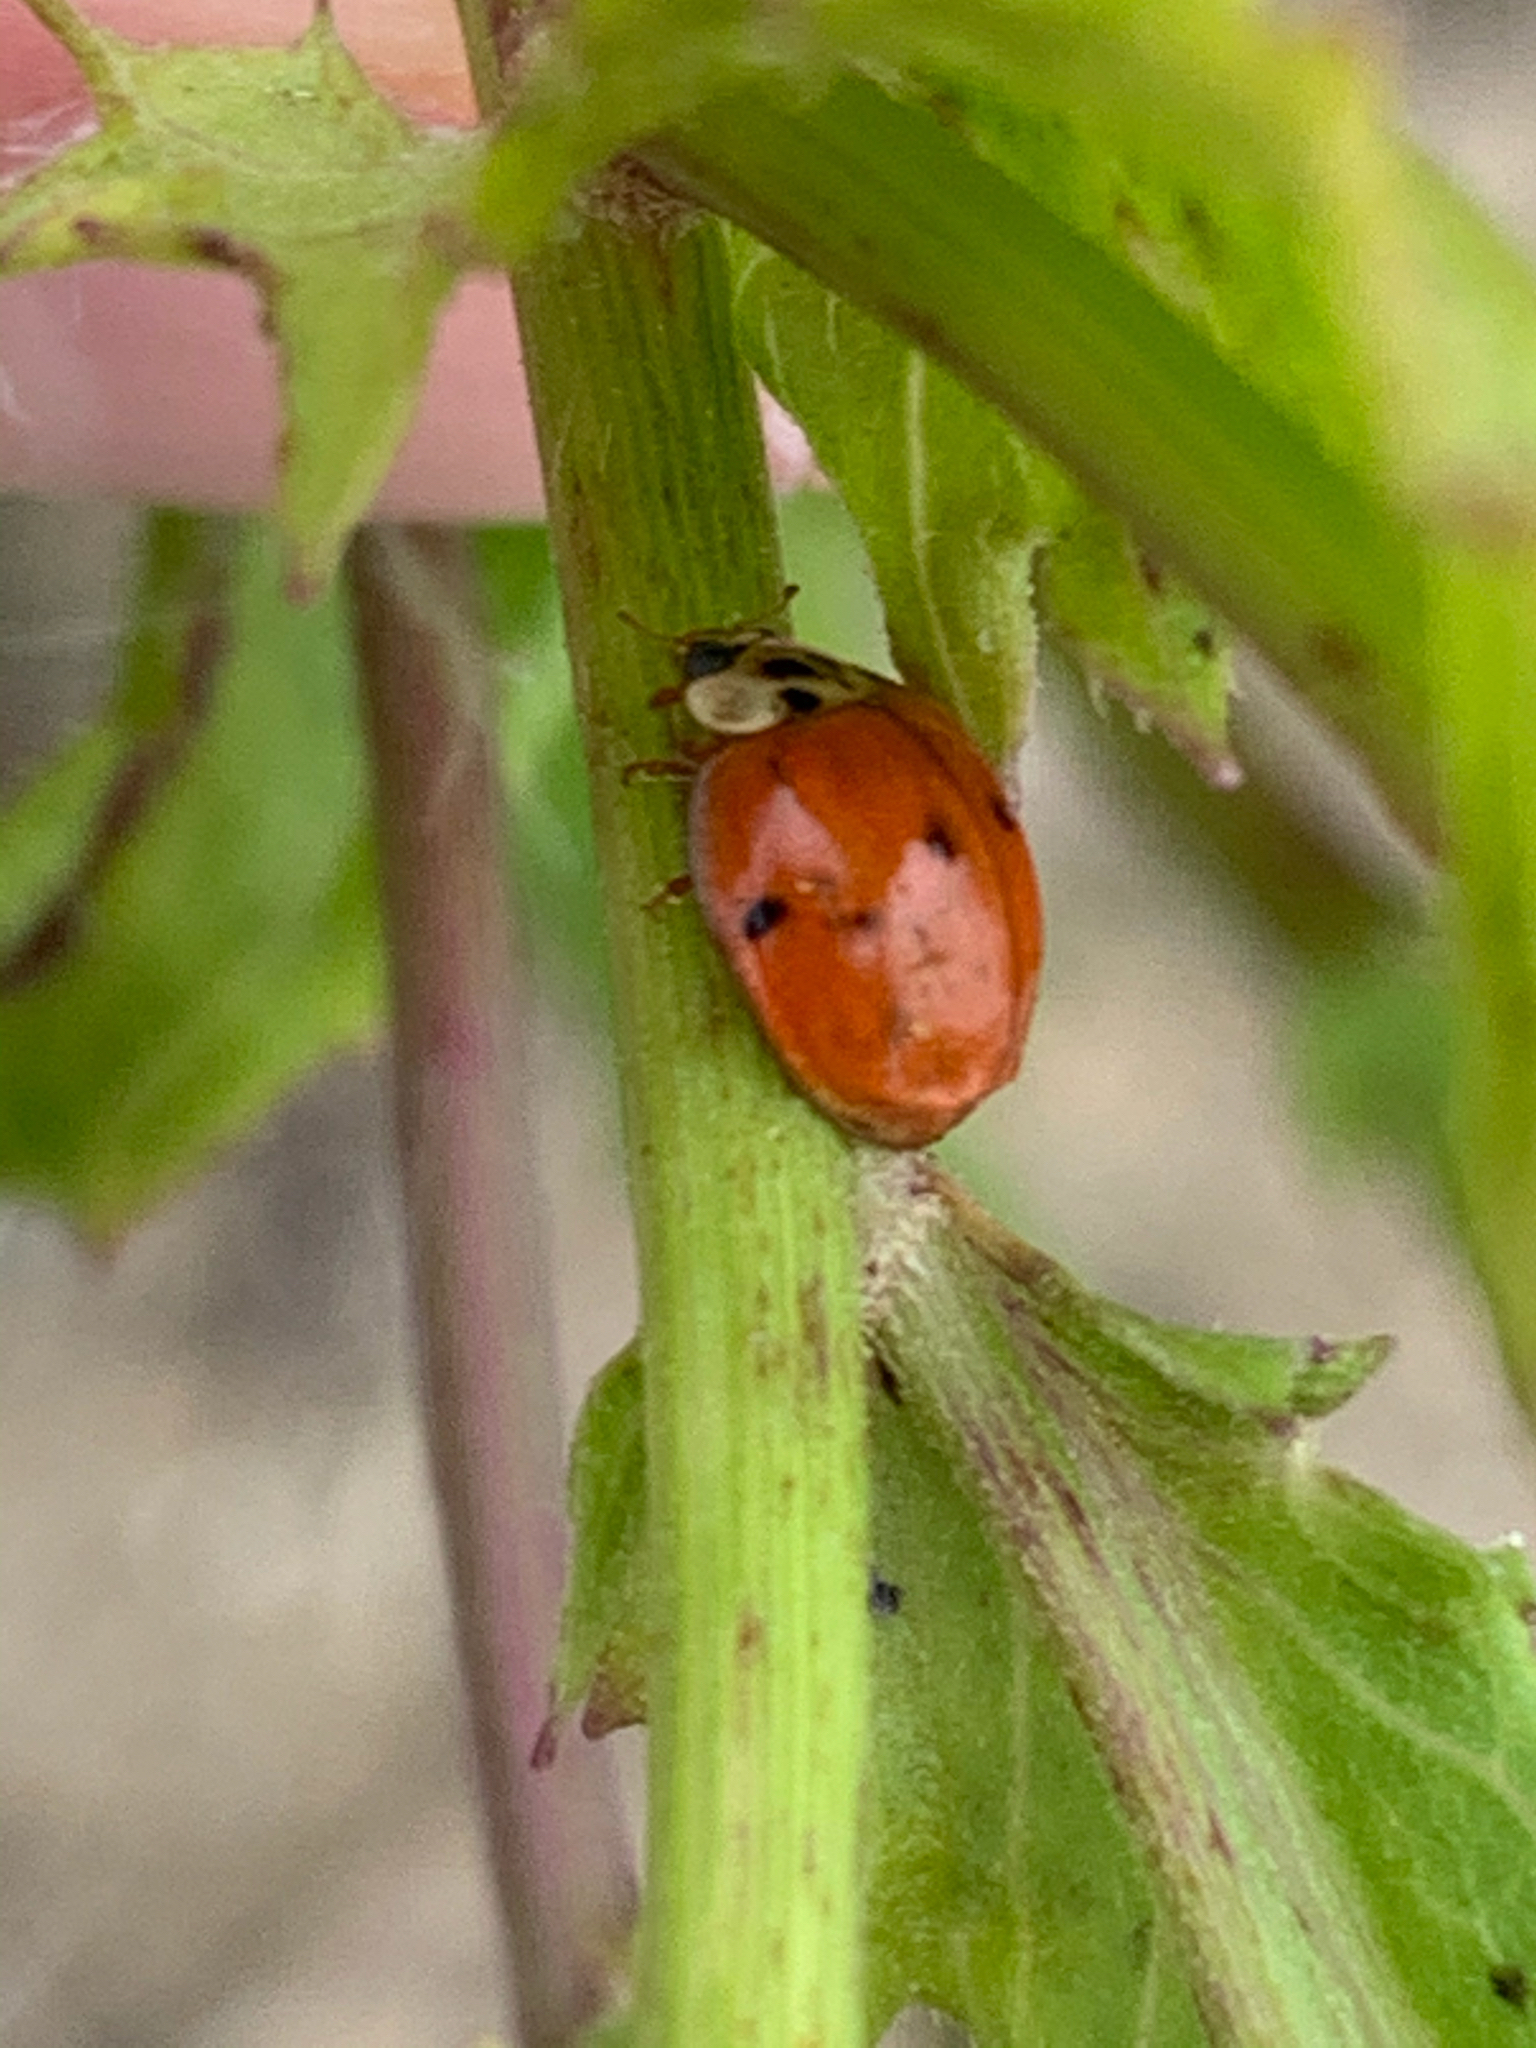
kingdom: Animalia
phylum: Arthropoda
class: Insecta
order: Coleoptera
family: Coccinellidae
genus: Harmonia
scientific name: Harmonia axyridis
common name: Harlequin ladybird
